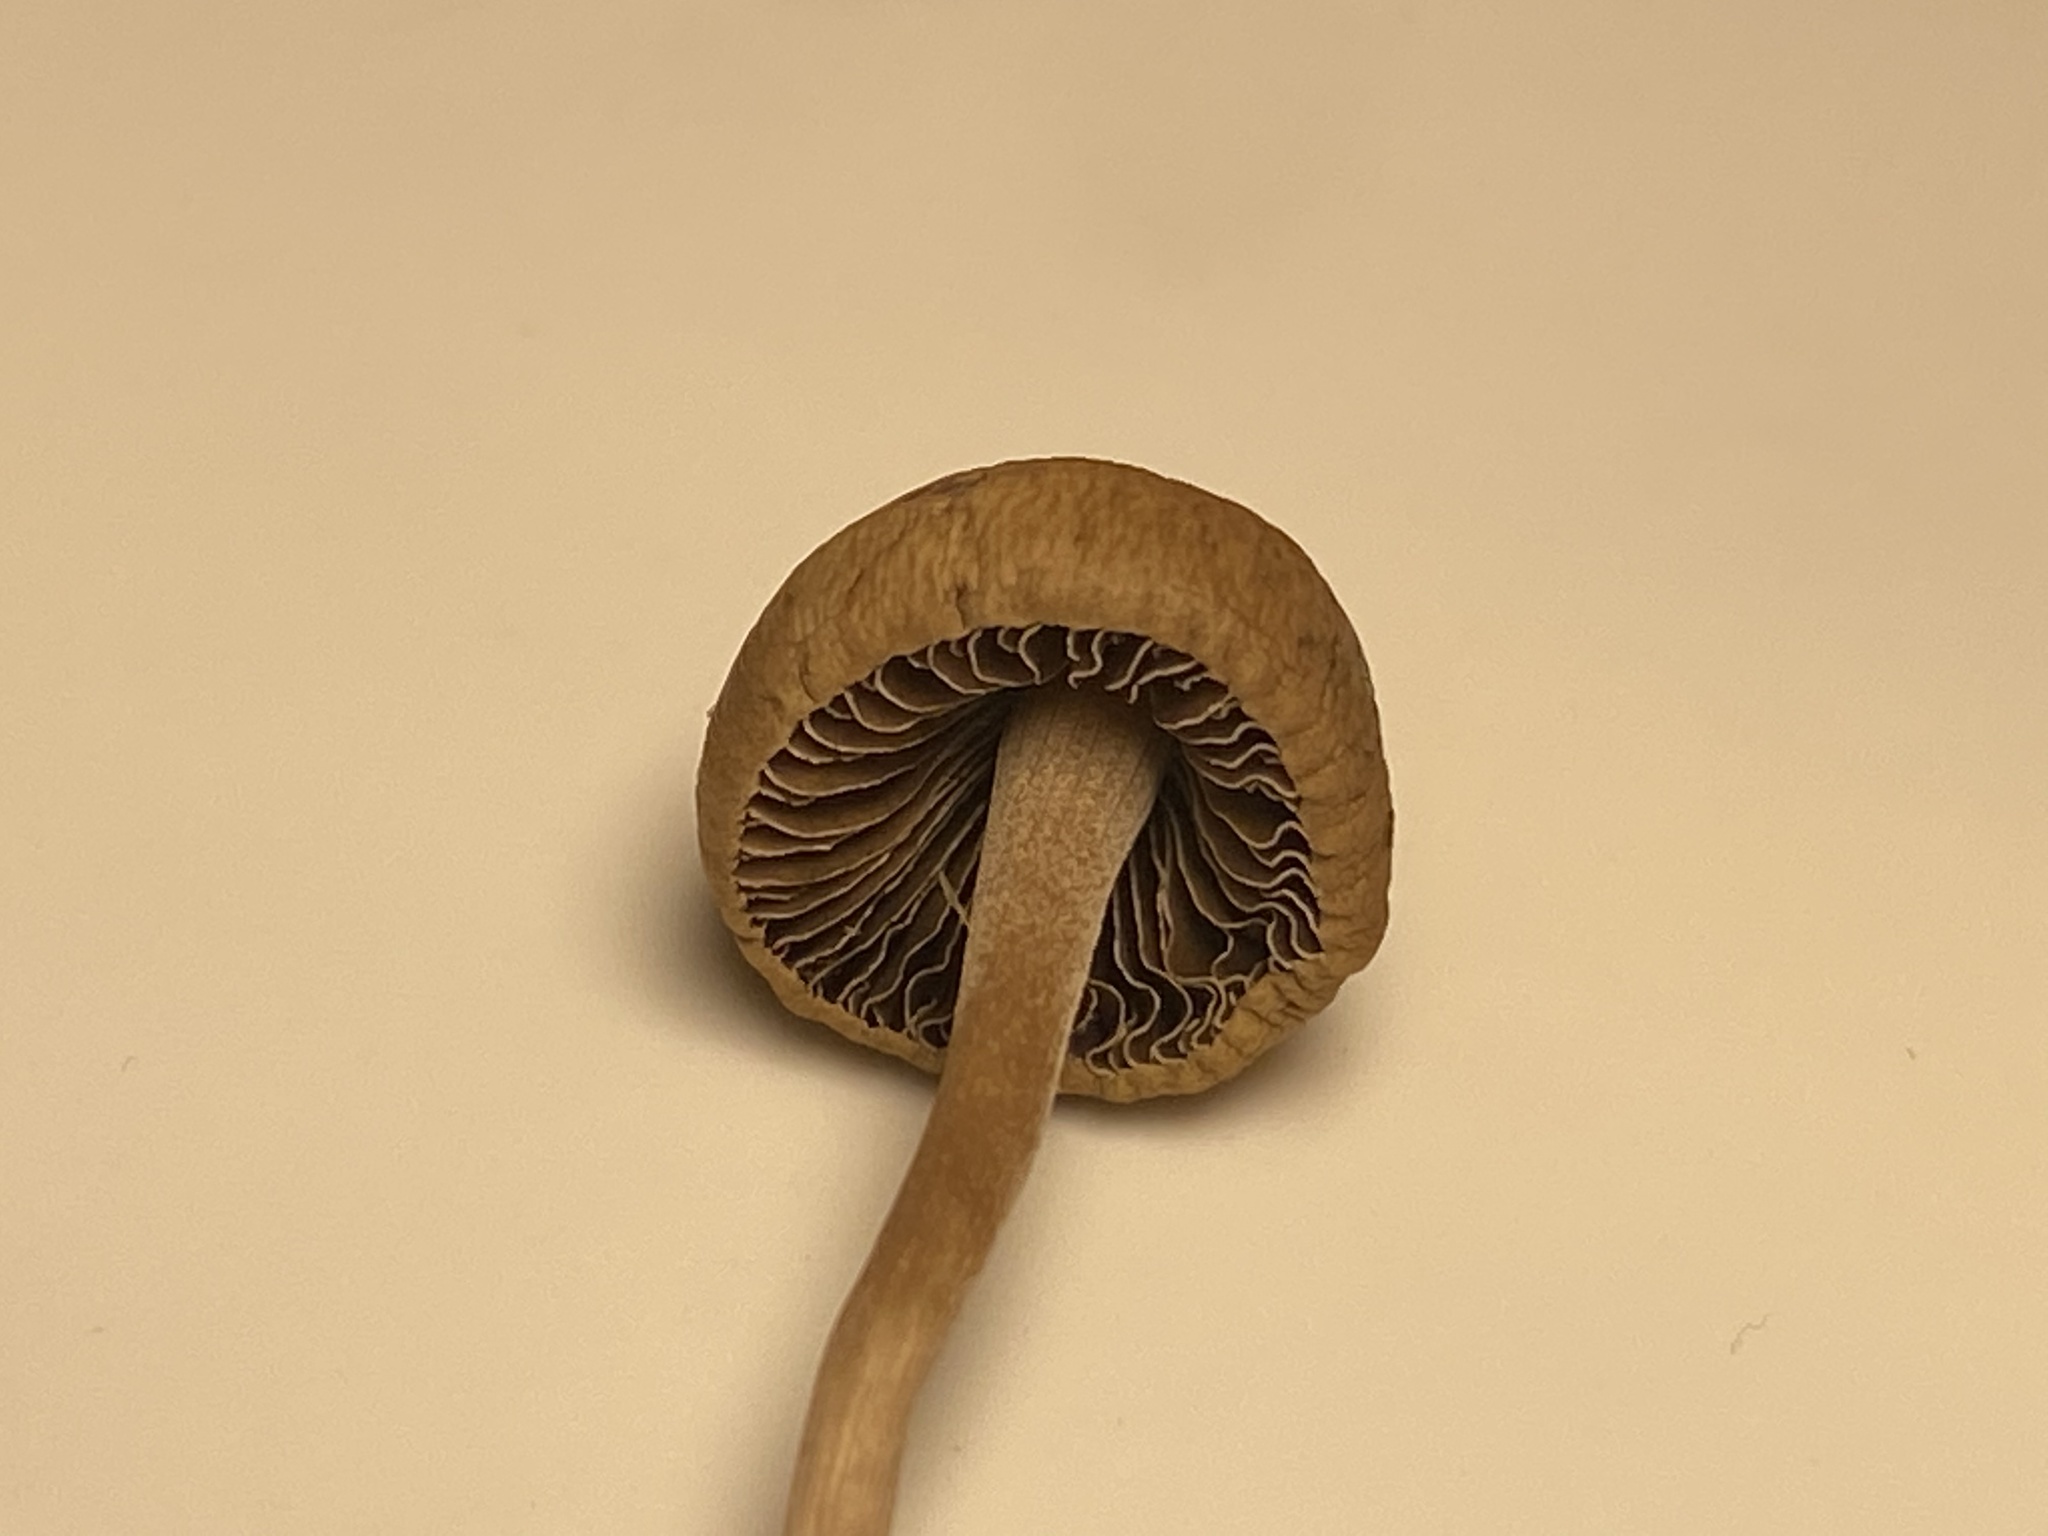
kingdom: Fungi
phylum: Basidiomycota
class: Agaricomycetes
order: Agaricales
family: Bolbitiaceae
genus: Panaeolina
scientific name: Panaeolina foenisecii
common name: Brown hay cap
